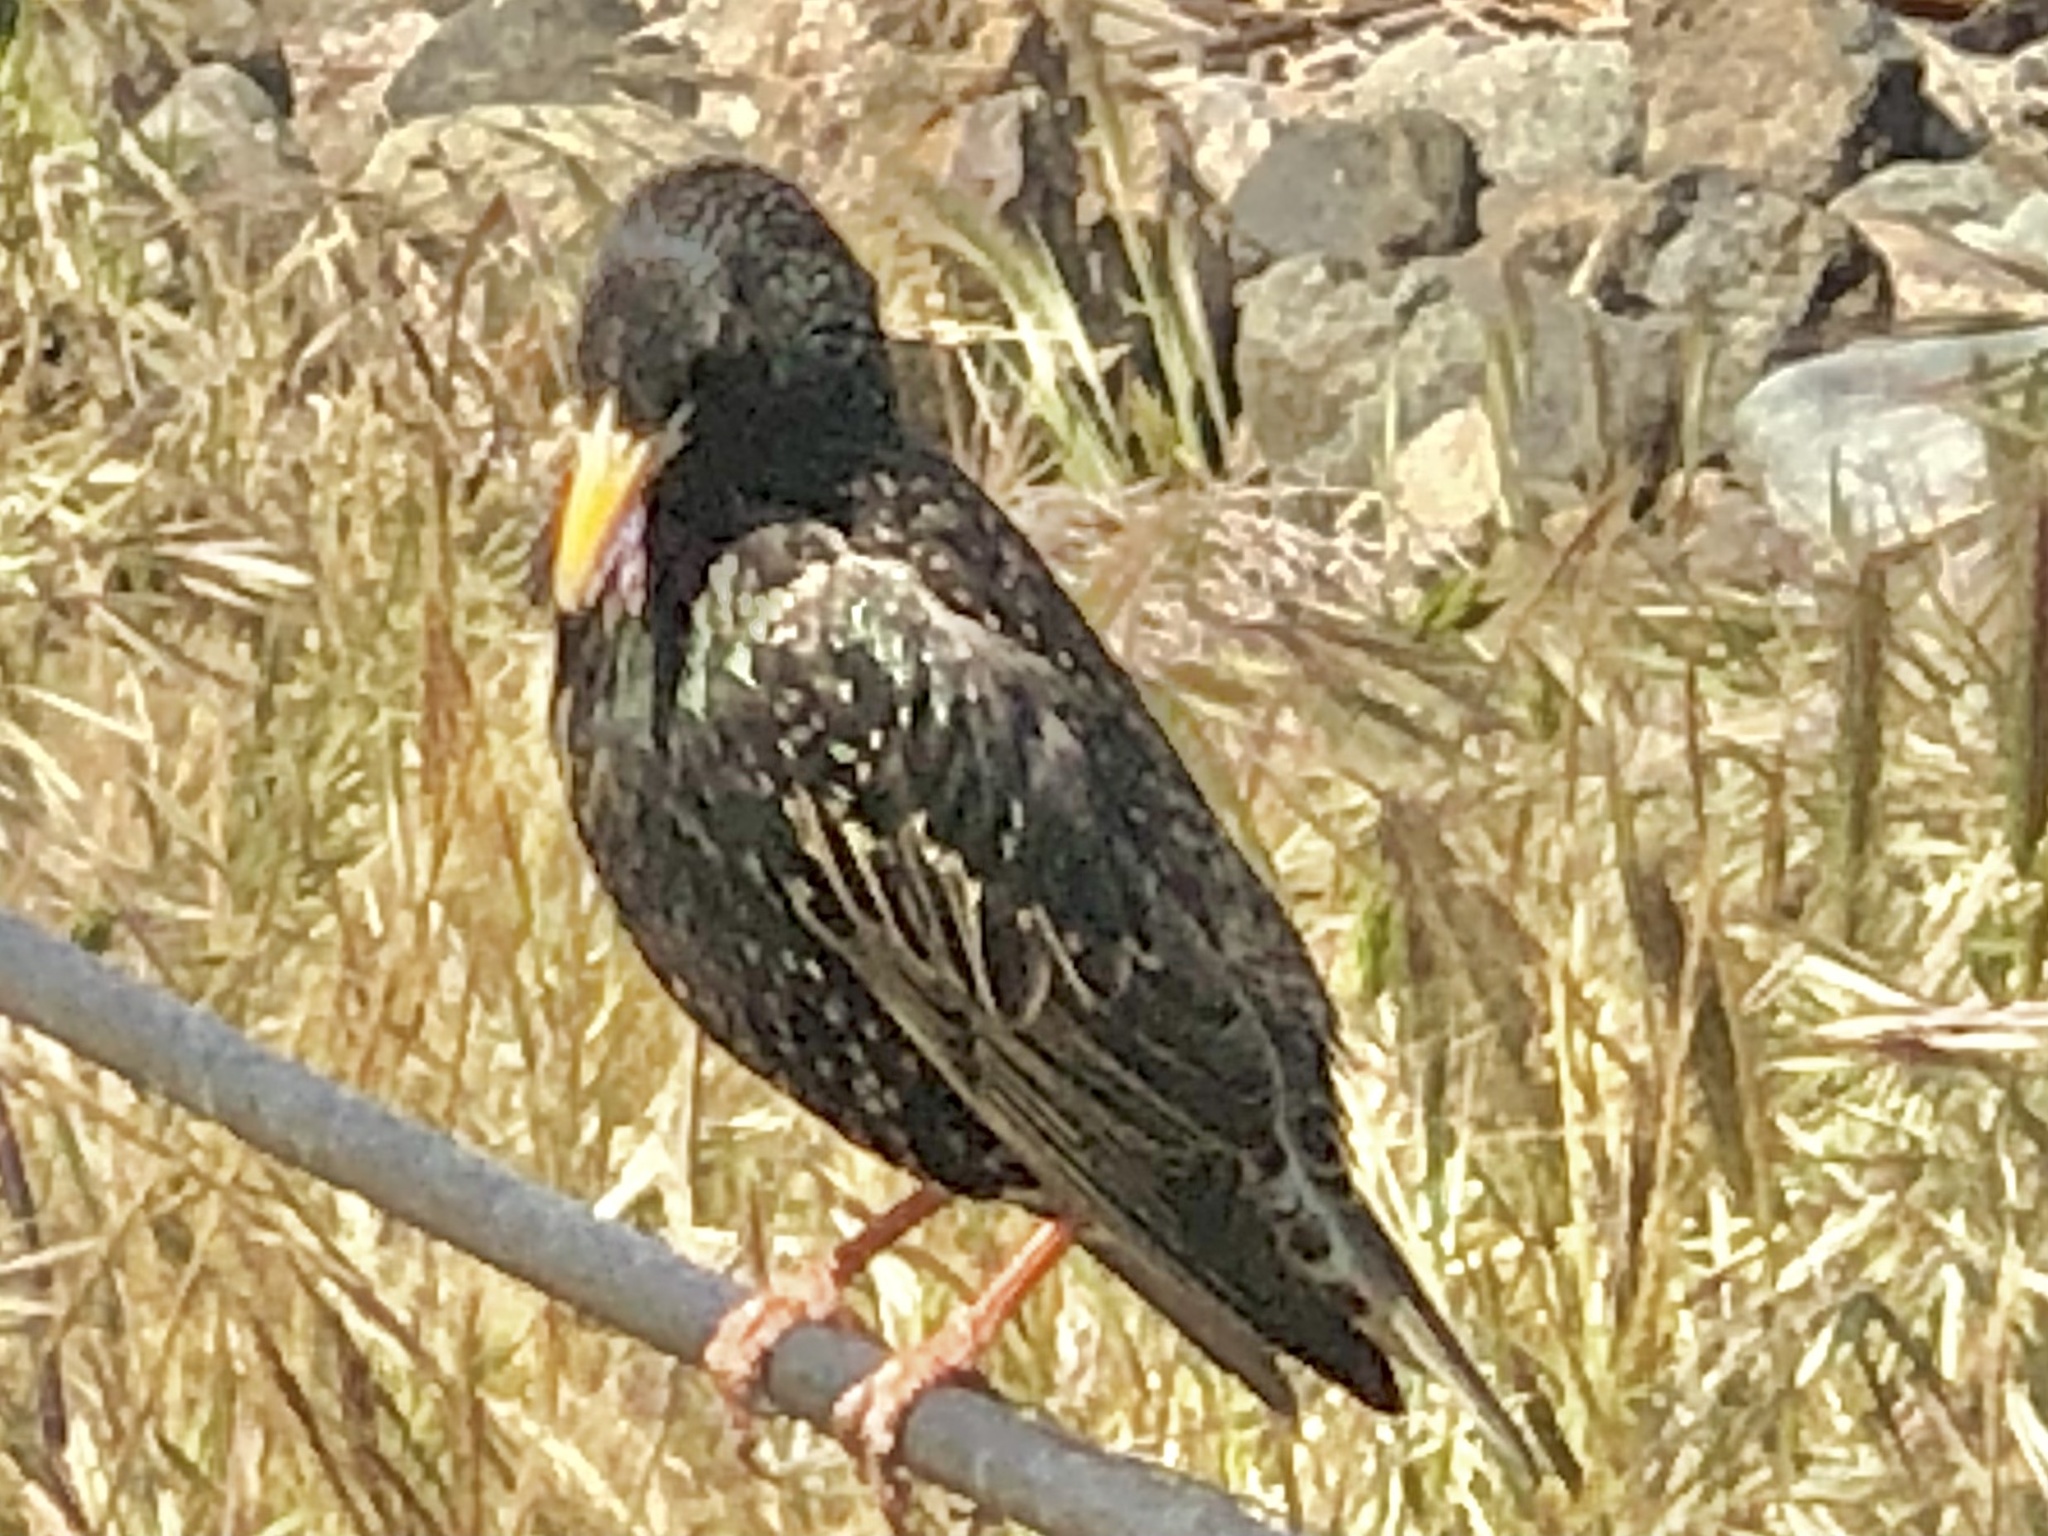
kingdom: Animalia
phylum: Chordata
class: Aves
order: Passeriformes
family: Sturnidae
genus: Sturnus
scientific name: Sturnus vulgaris
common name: Common starling
